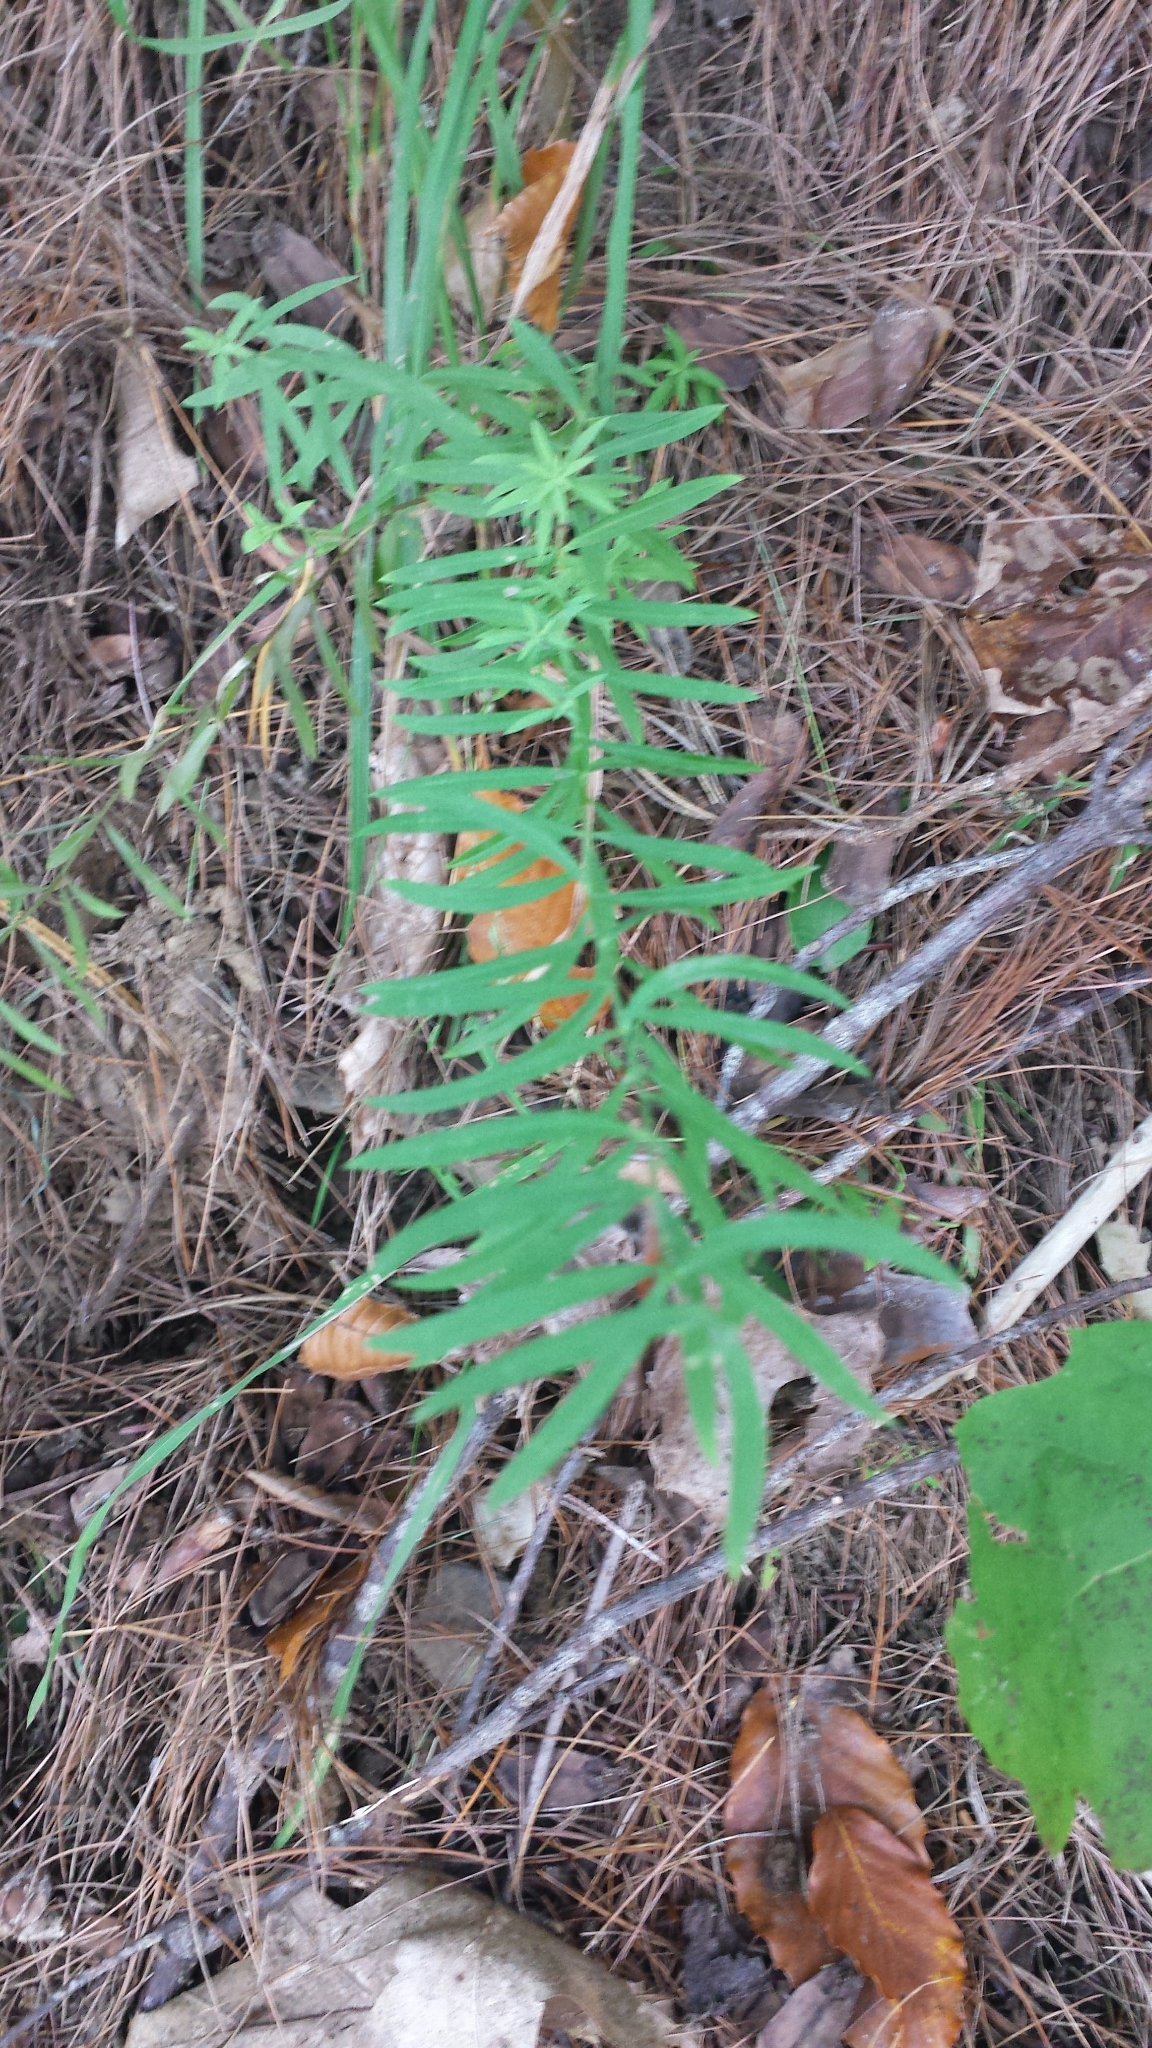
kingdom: Plantae
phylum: Tracheophyta
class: Magnoliopsida
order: Lamiales
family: Plantaginaceae
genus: Linaria
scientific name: Linaria vulgaris
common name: Butter and eggs
